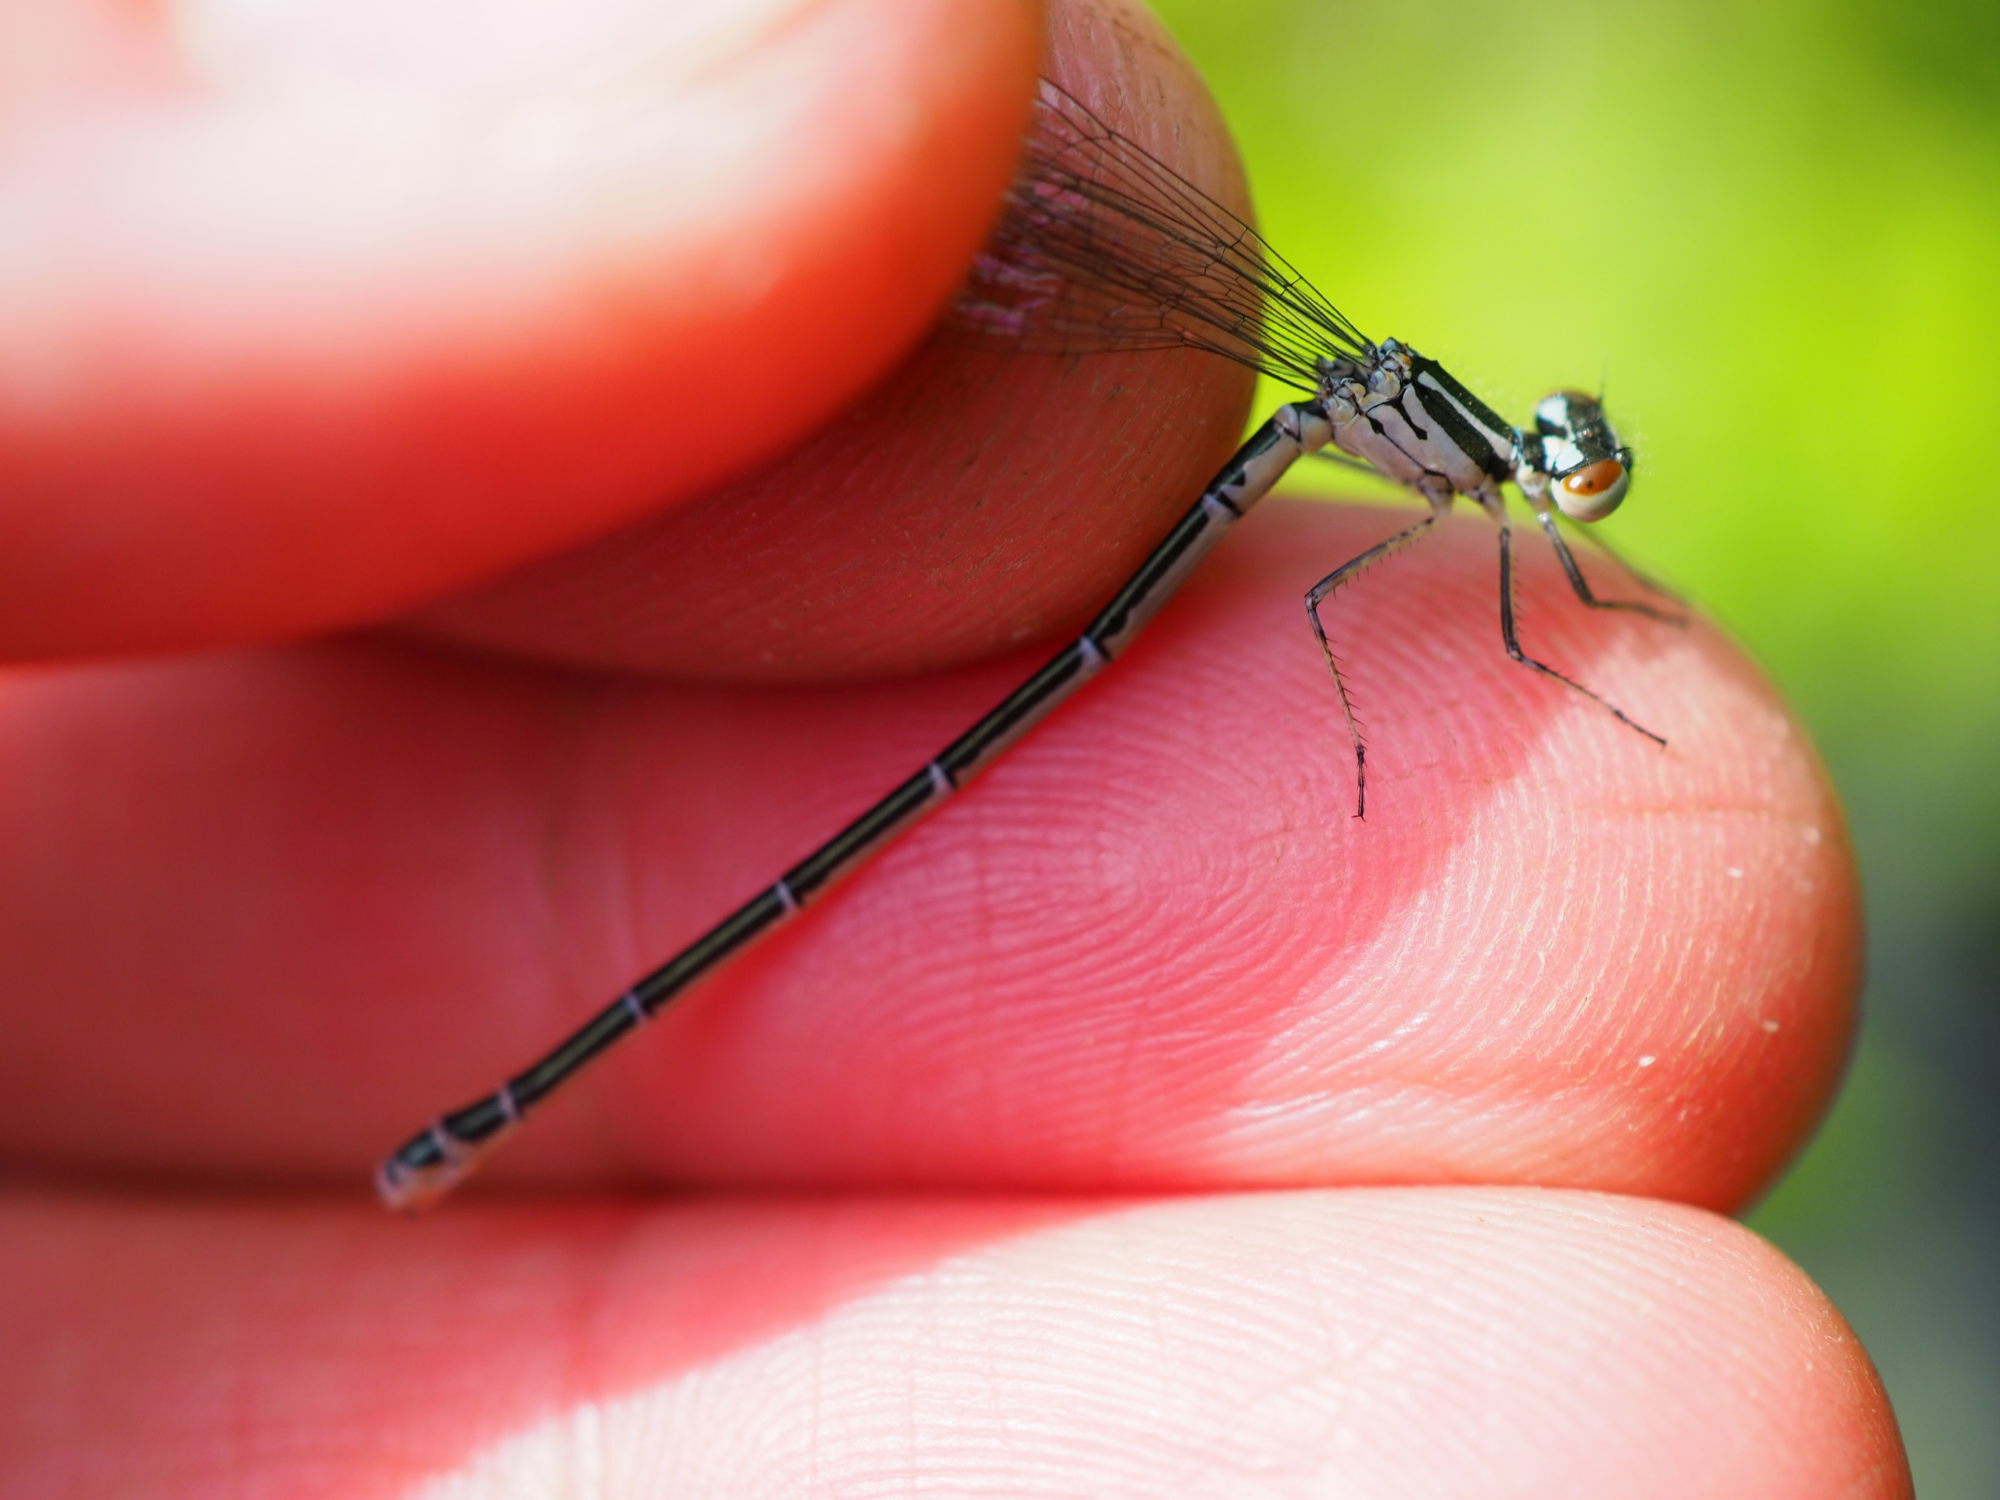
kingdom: Animalia
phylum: Arthropoda
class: Insecta
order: Odonata
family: Coenagrionidae
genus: Coenagrion
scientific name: Coenagrion puella
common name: Azure damselfly
